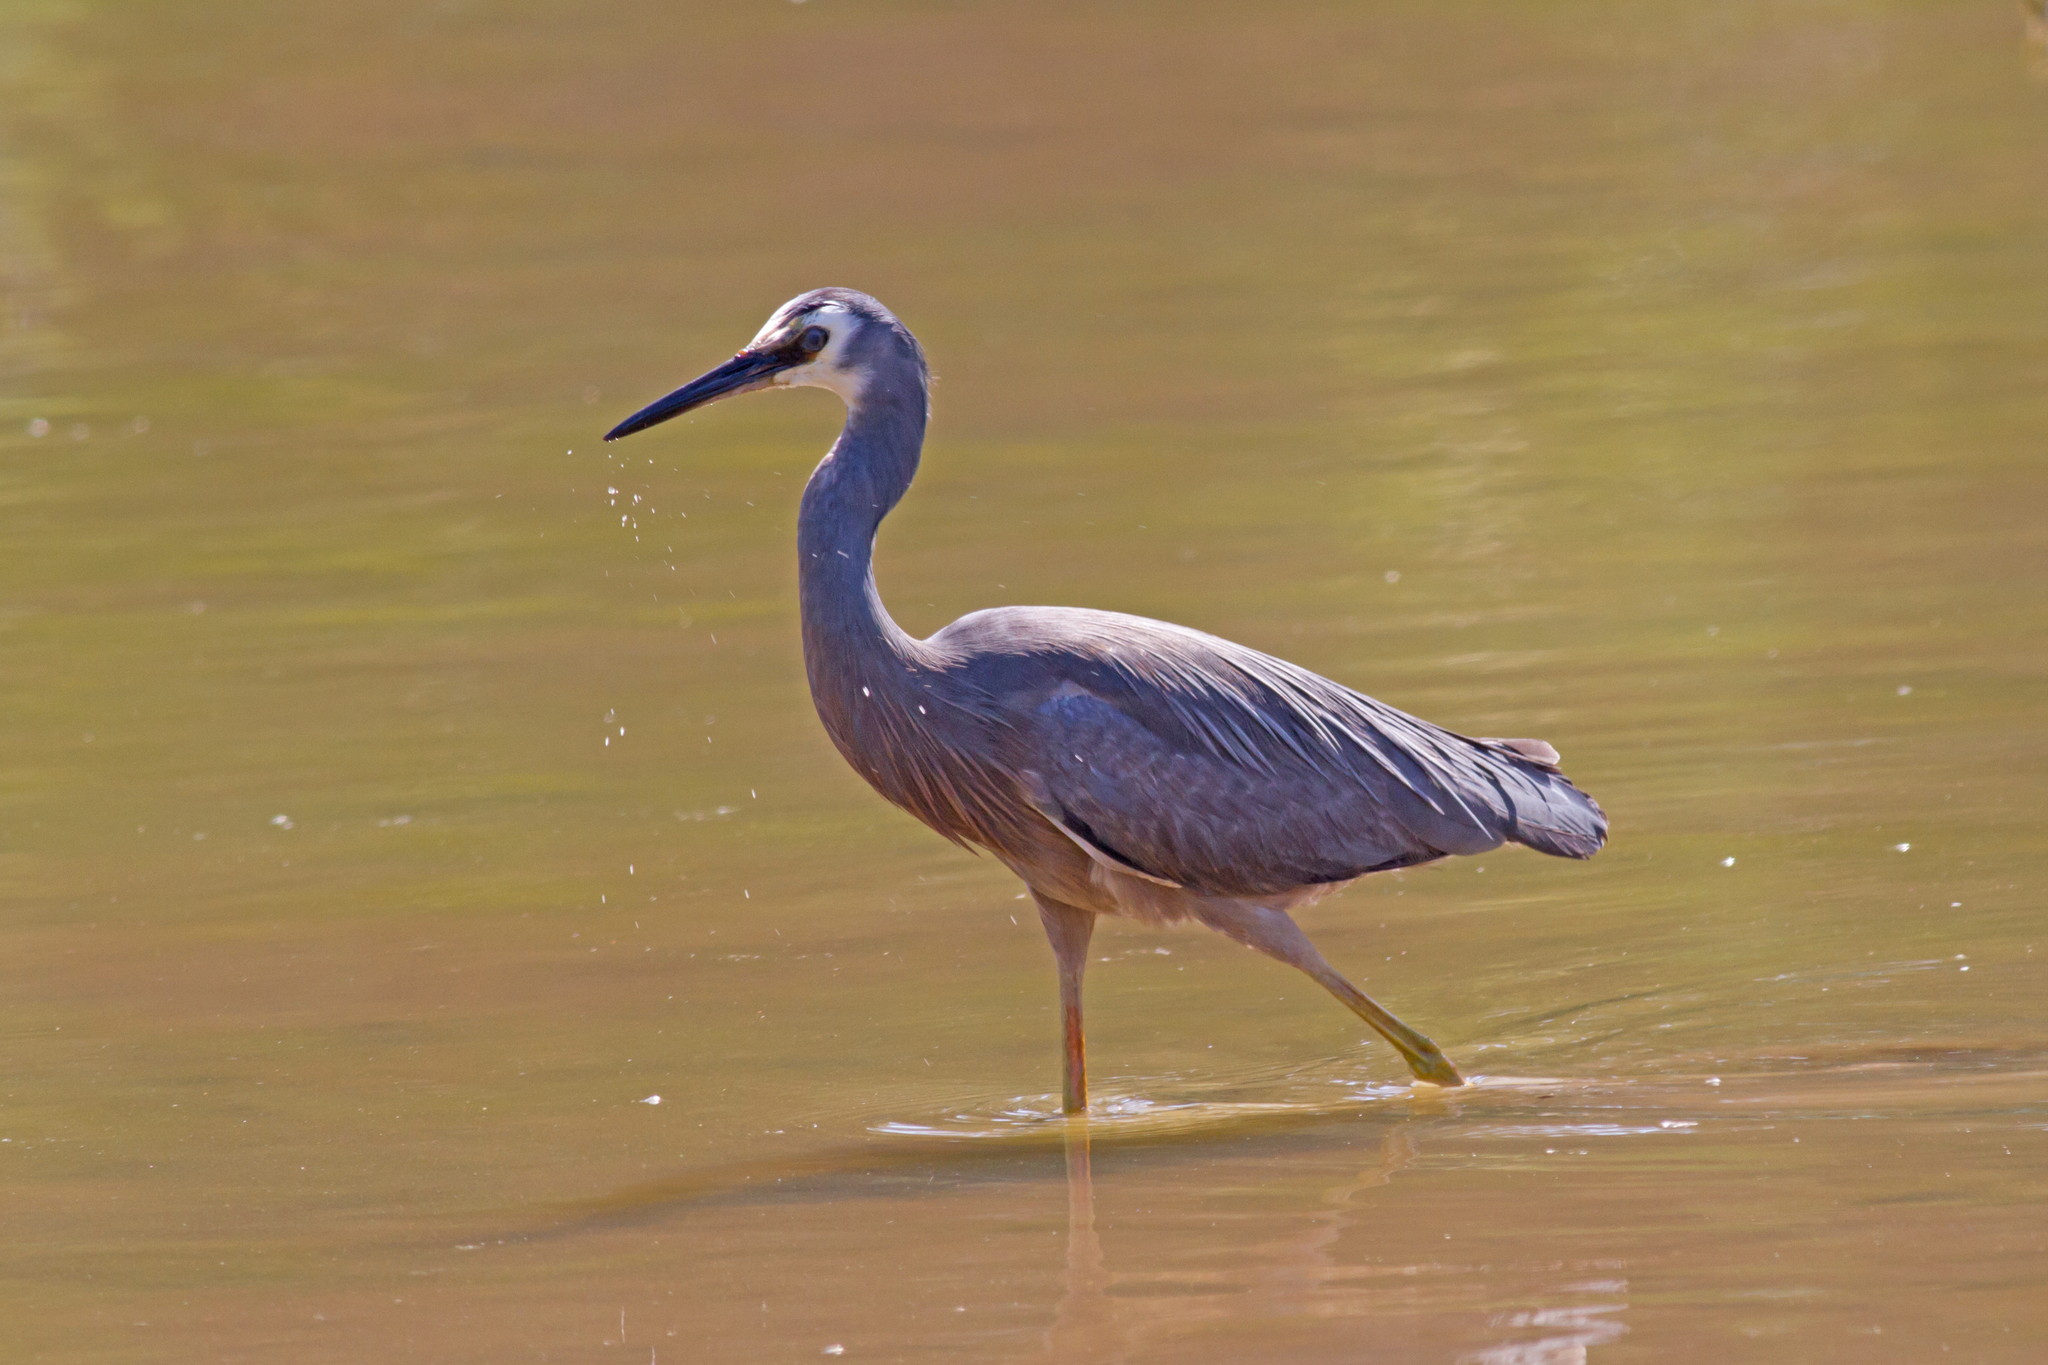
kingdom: Animalia
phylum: Chordata
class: Aves
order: Pelecaniformes
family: Ardeidae
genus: Egretta
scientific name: Egretta novaehollandiae
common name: White-faced heron
